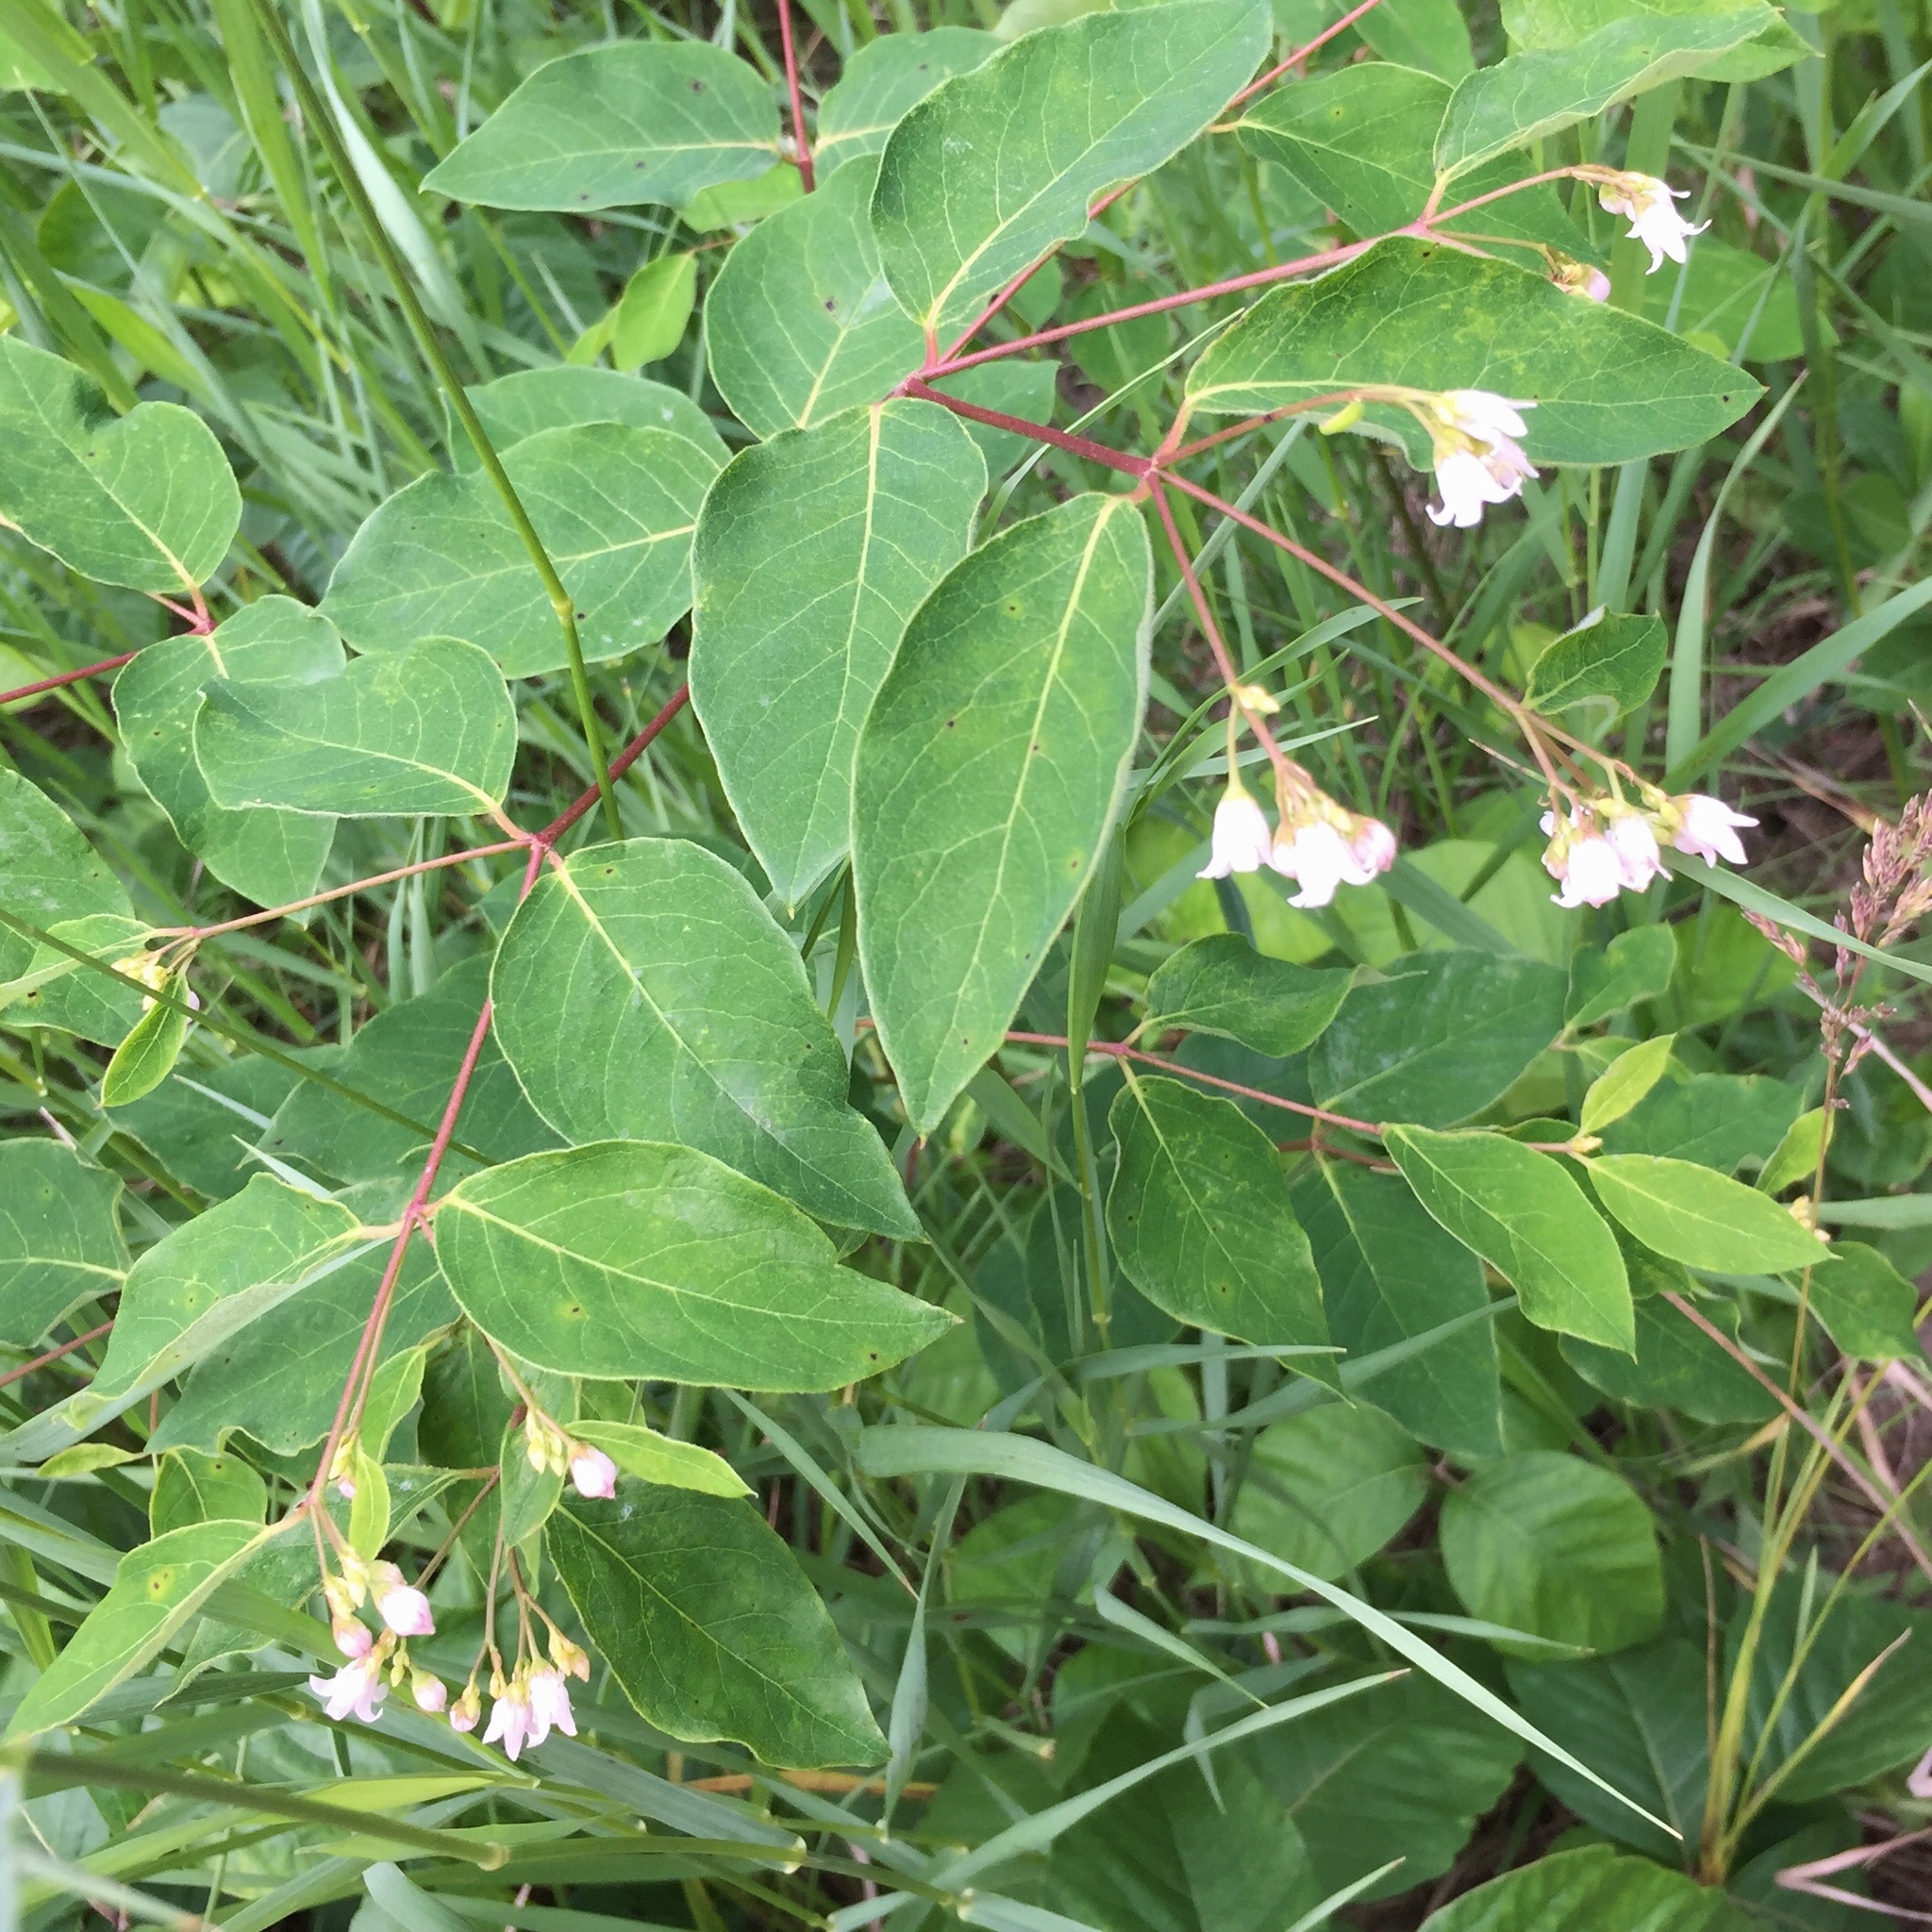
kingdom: Plantae
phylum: Tracheophyta
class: Magnoliopsida
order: Gentianales
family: Apocynaceae
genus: Apocynum
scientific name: Apocynum androsaemifolium
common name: Spreading dogbane
